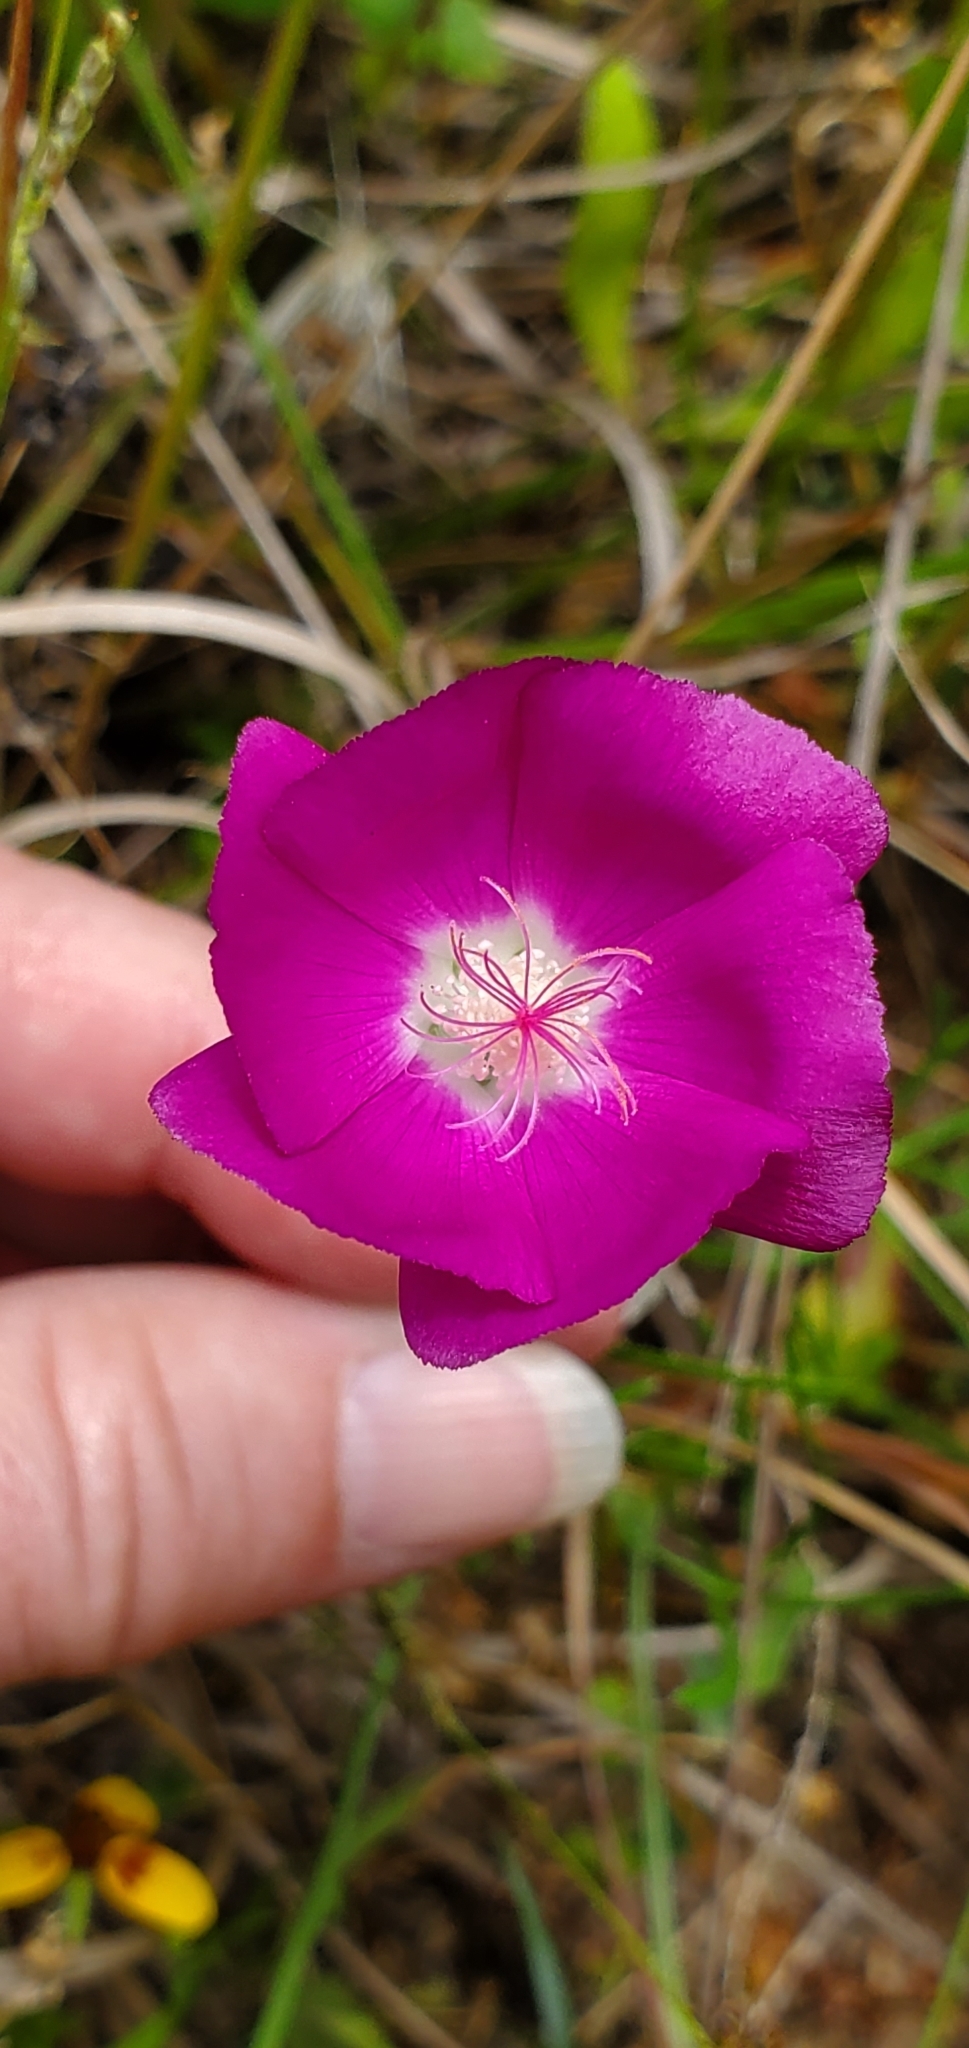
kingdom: Plantae
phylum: Tracheophyta
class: Magnoliopsida
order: Malvales
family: Malvaceae
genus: Callirhoe
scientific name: Callirhoe involucrata
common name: Purple poppy-mallow
